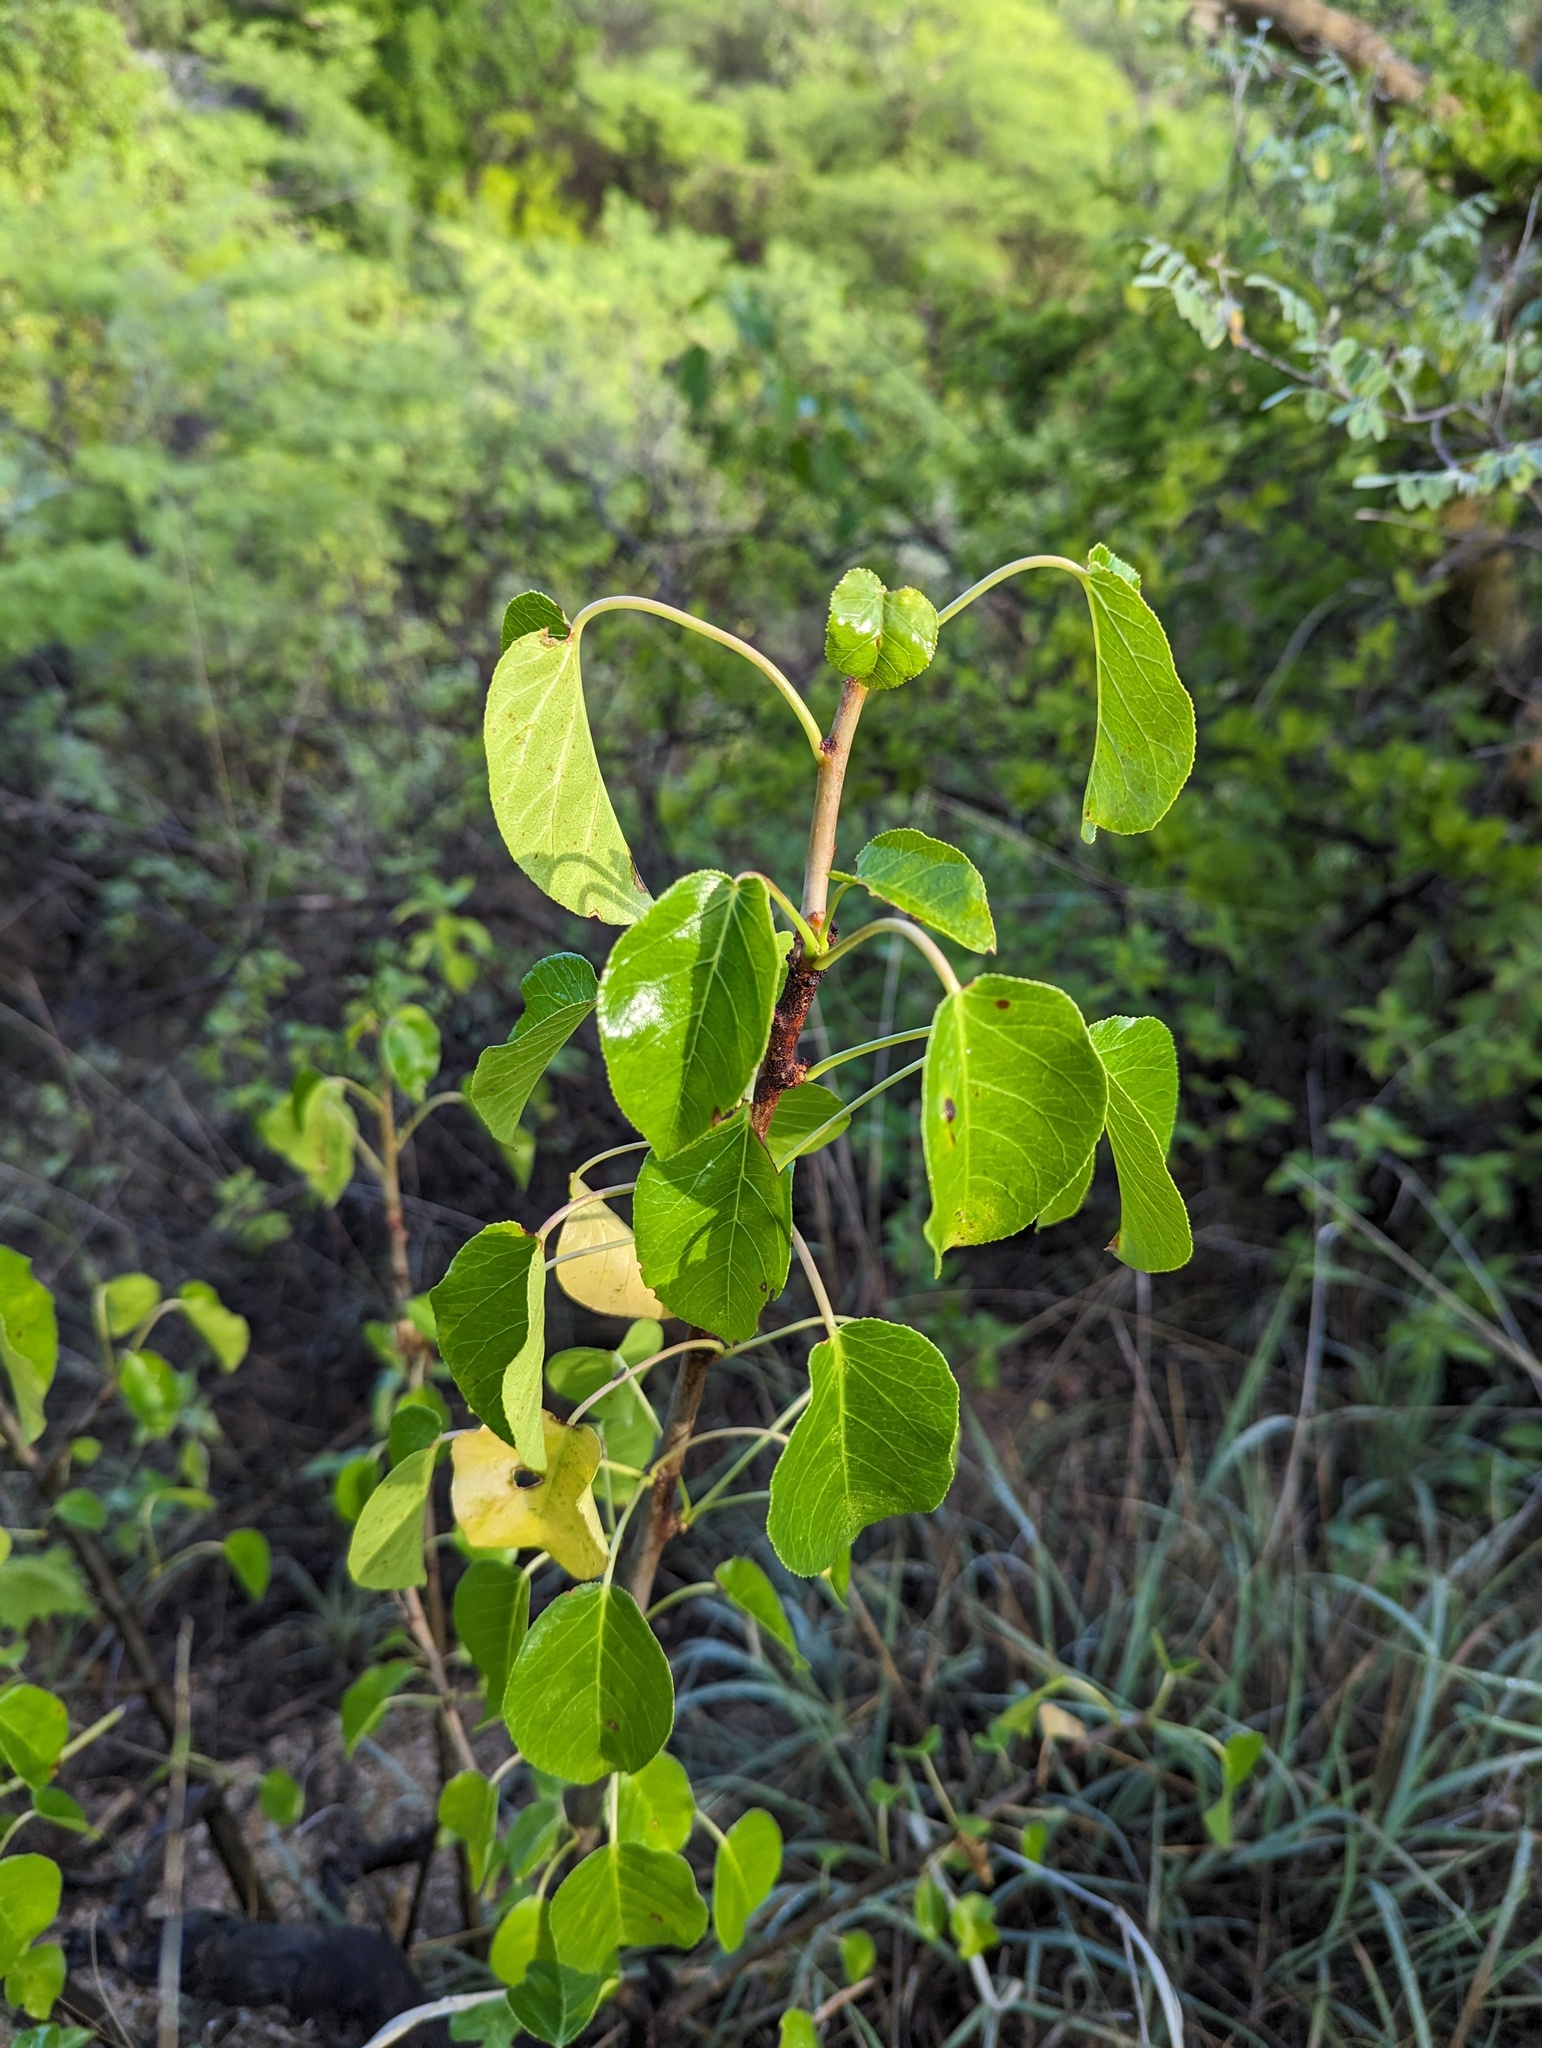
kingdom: Plantae
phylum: Tracheophyta
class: Magnoliopsida
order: Malpighiales
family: Euphorbiaceae
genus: Jatropha
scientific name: Jatropha vernicosa
